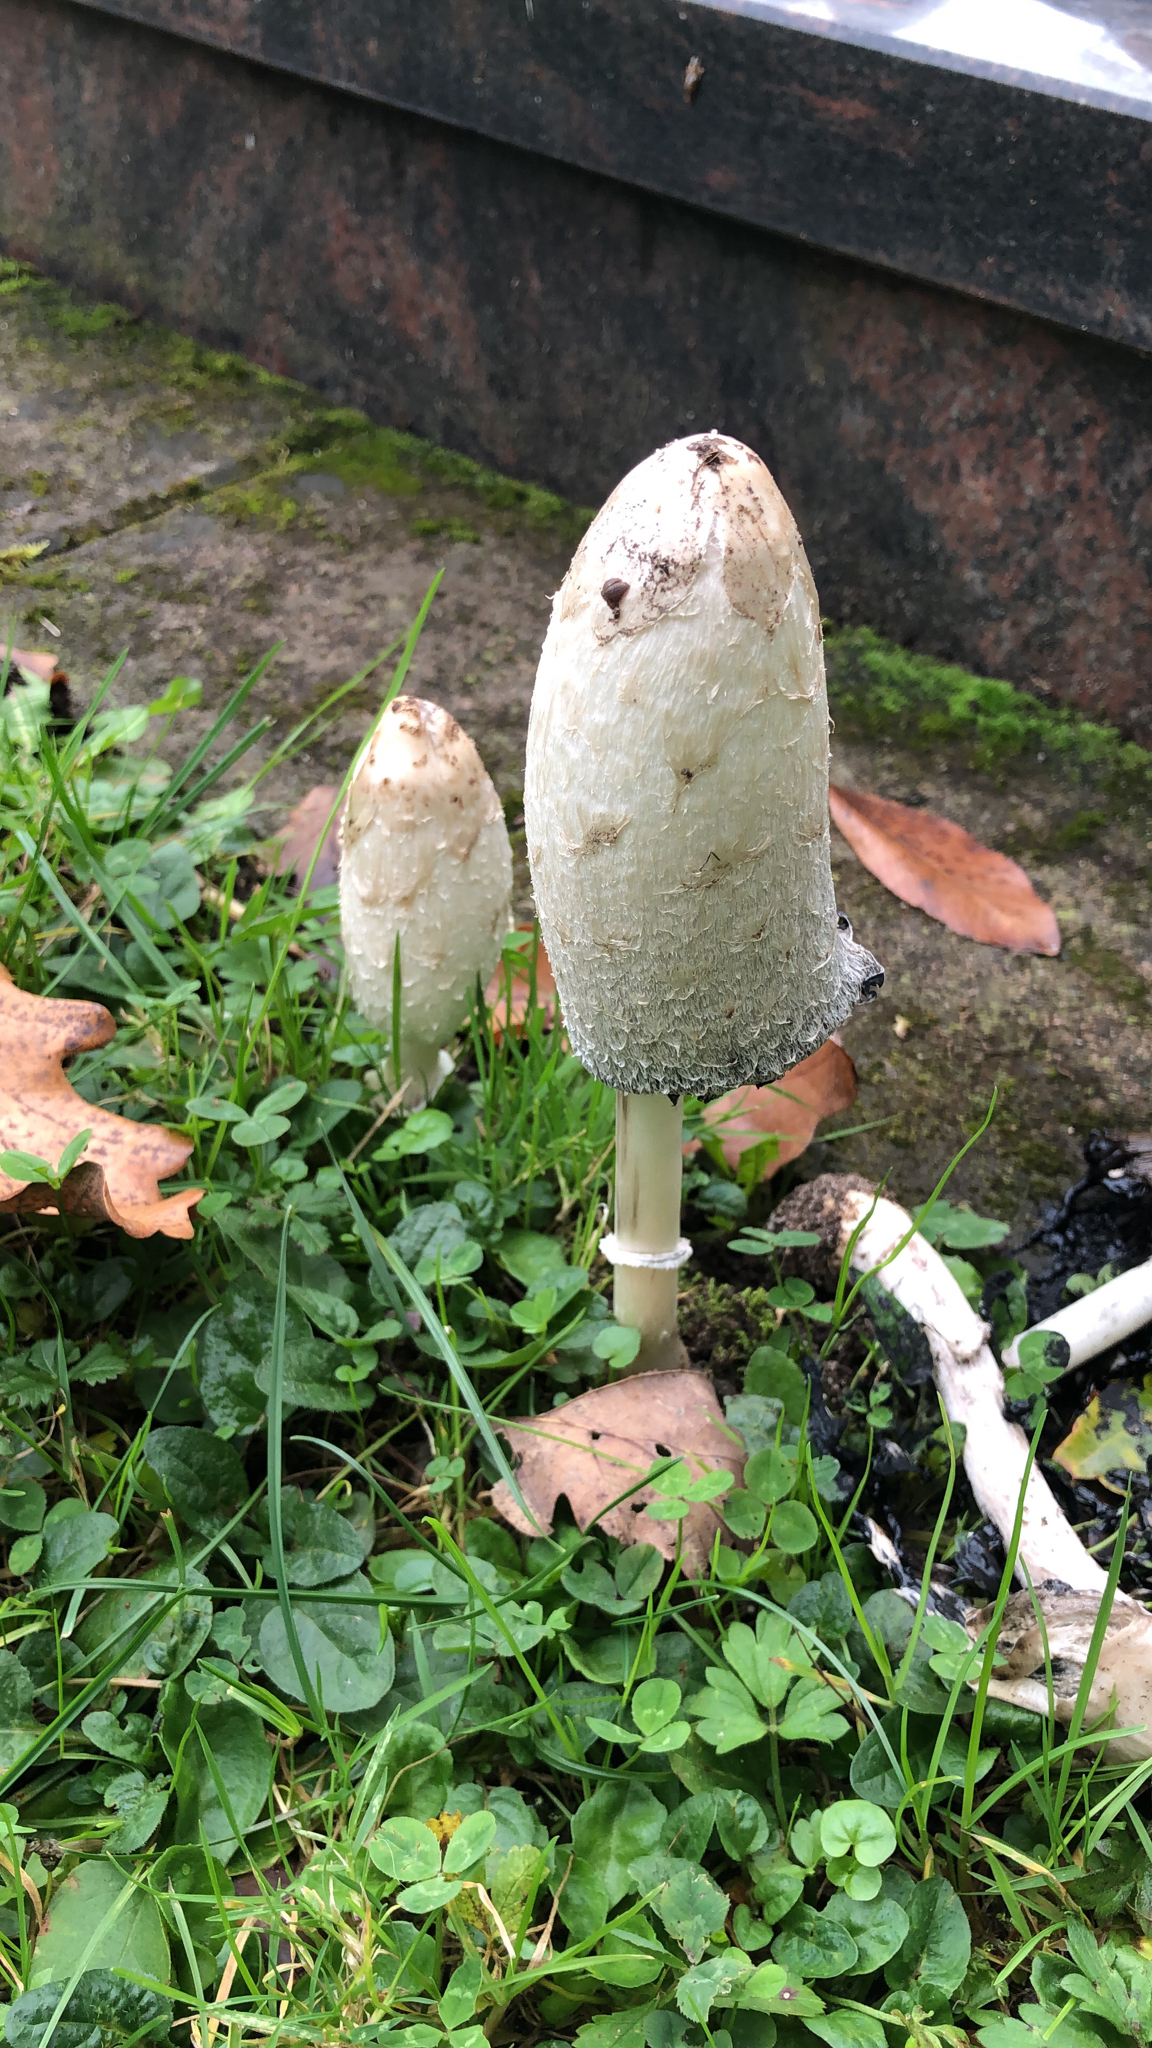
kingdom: Fungi
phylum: Basidiomycota
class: Agaricomycetes
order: Agaricales
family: Agaricaceae
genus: Coprinus
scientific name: Coprinus comatus
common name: Lawyer's wig
